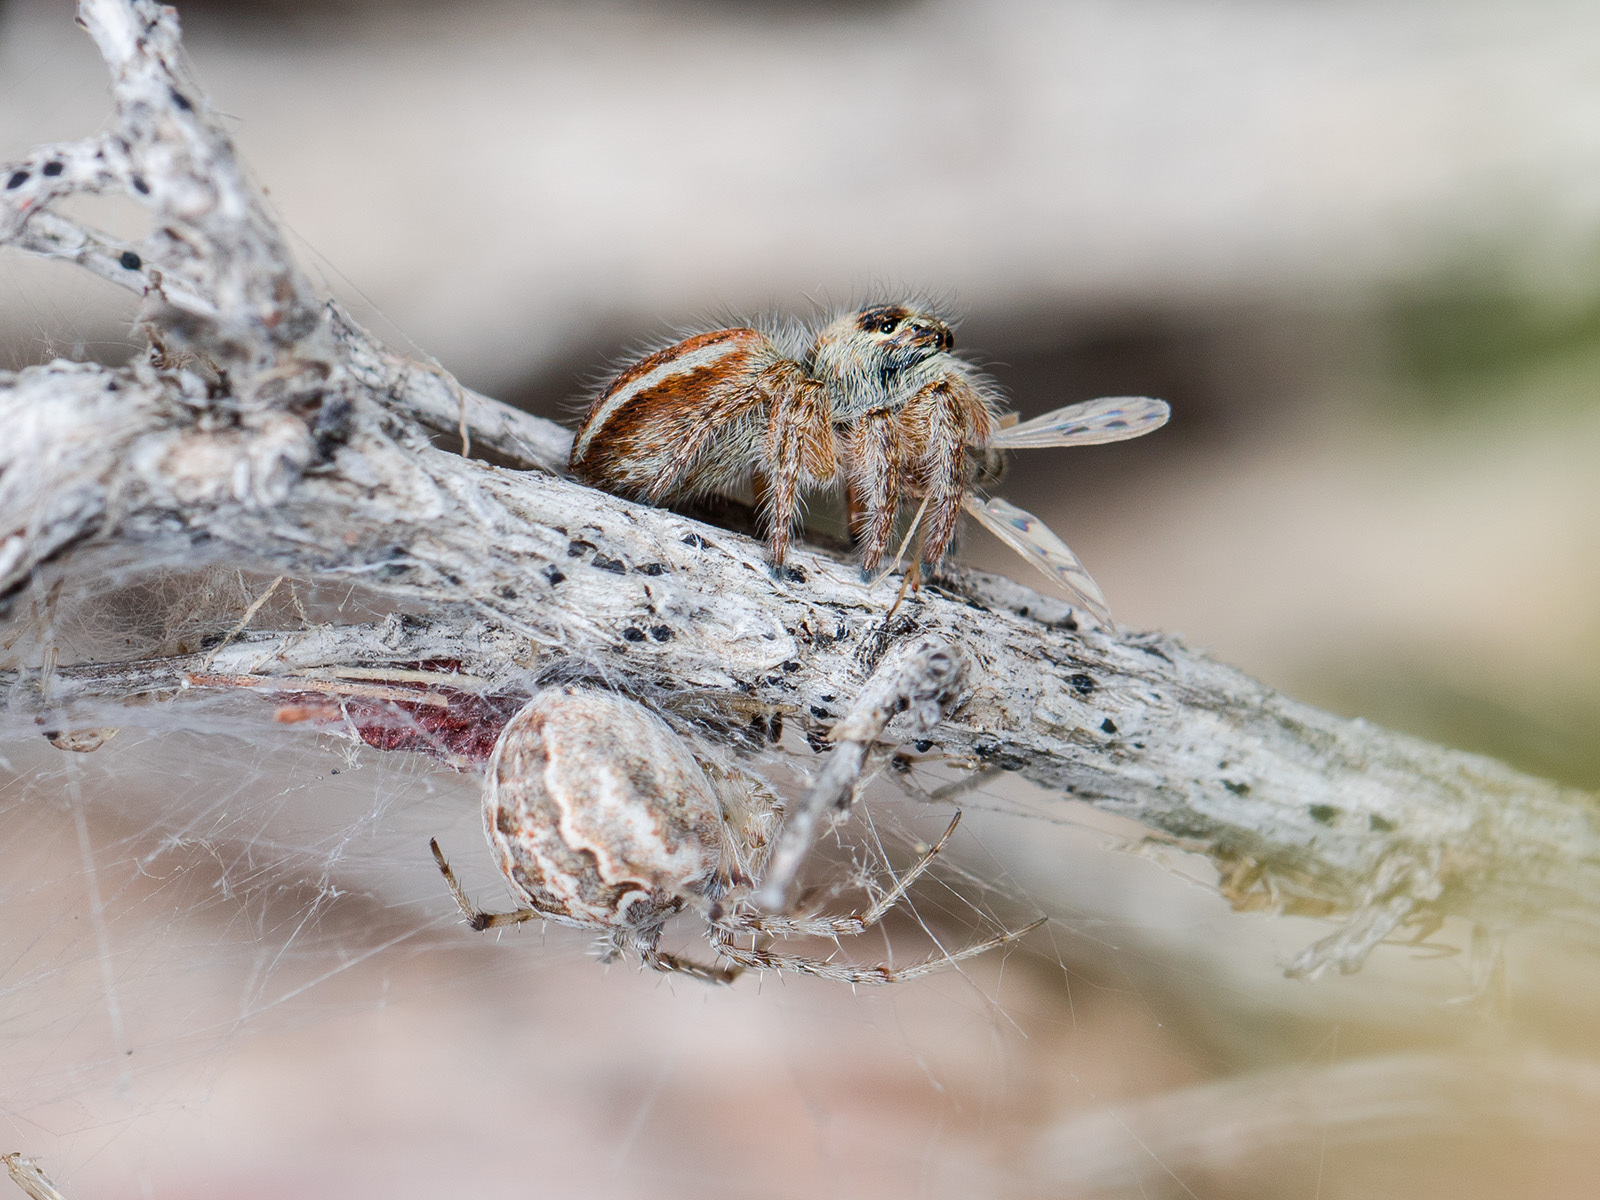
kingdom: Animalia
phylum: Arthropoda
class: Arachnida
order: Araneae
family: Salticidae
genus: Philaeus
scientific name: Philaeus chrysops
